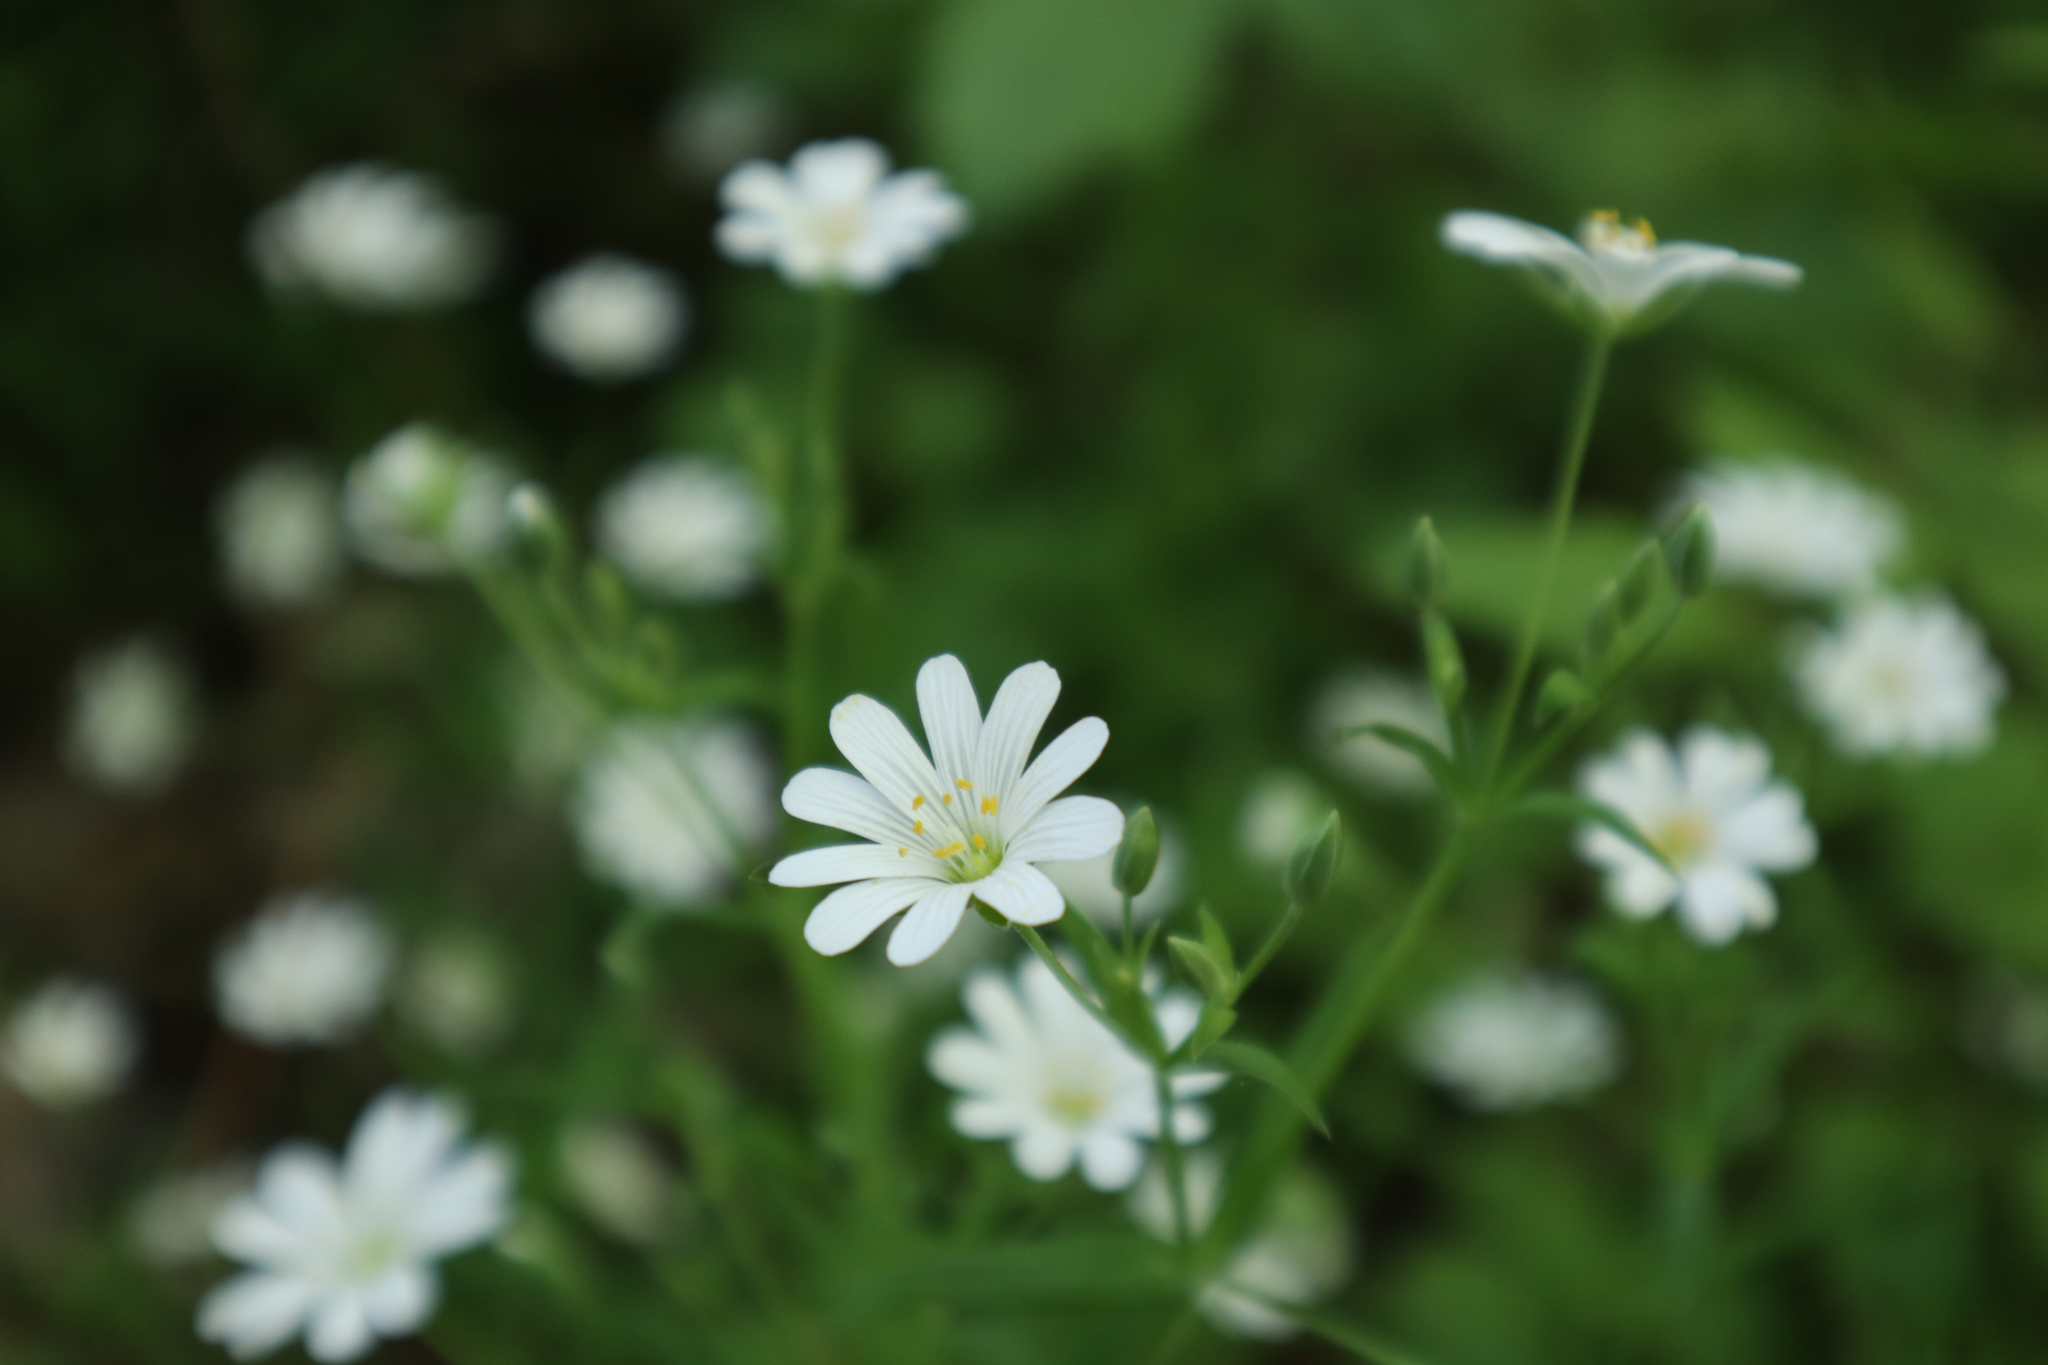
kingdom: Plantae
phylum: Tracheophyta
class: Magnoliopsida
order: Caryophyllales
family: Caryophyllaceae
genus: Rabelera
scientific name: Rabelera holostea
